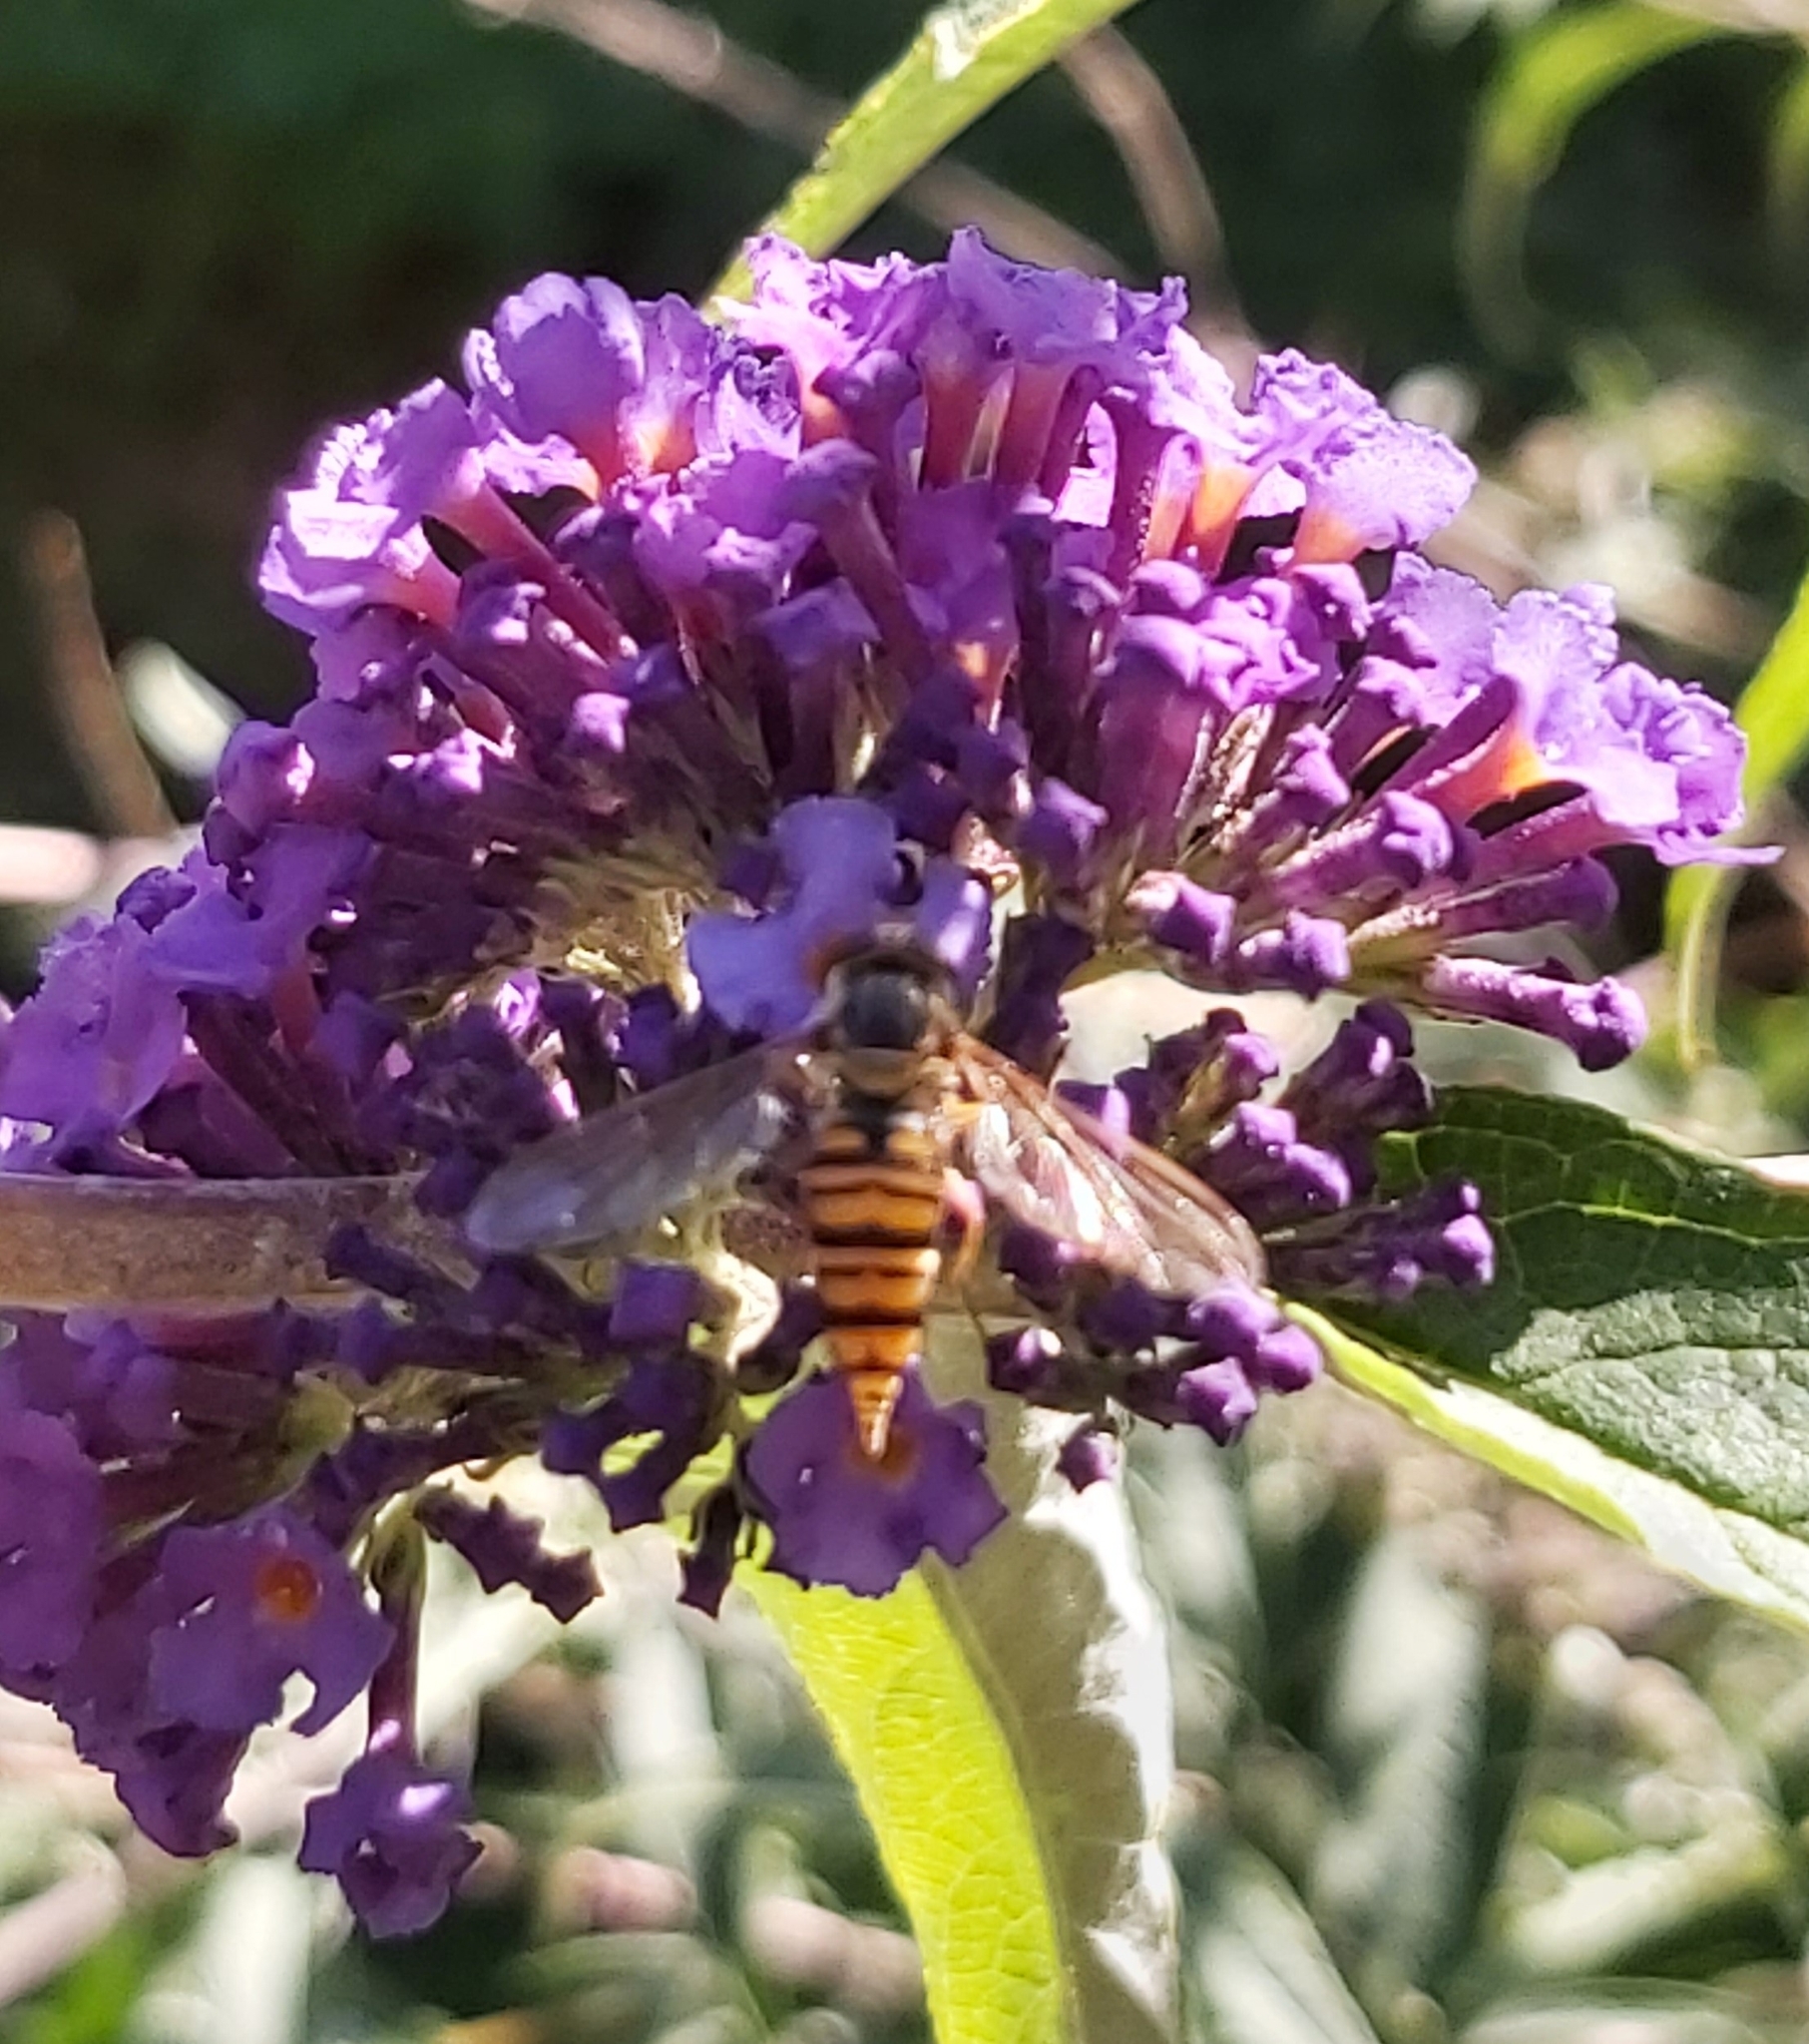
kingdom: Animalia
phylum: Arthropoda
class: Insecta
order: Diptera
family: Syrphidae
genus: Episyrphus
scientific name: Episyrphus balteatus
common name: Marmalade hoverfly
